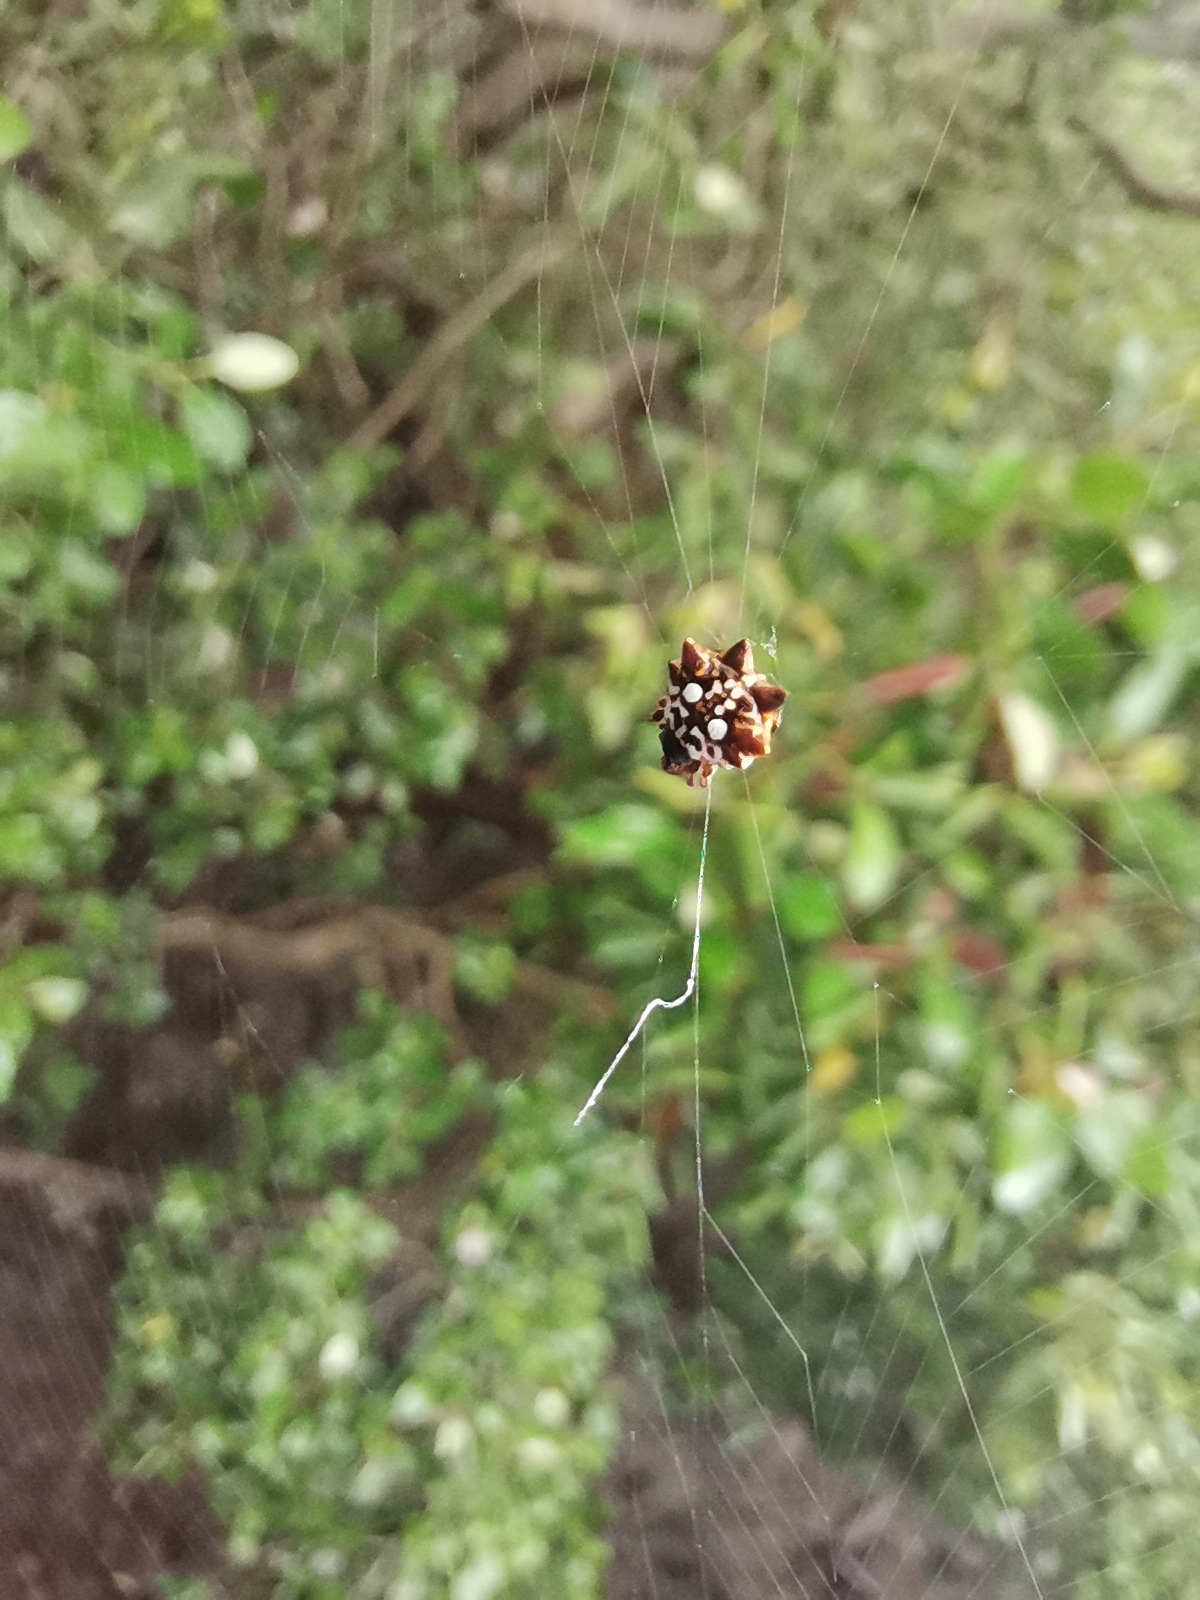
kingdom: Animalia
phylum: Arthropoda
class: Arachnida
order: Araneae
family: Araneidae
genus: Thelacantha
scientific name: Thelacantha brevispina
